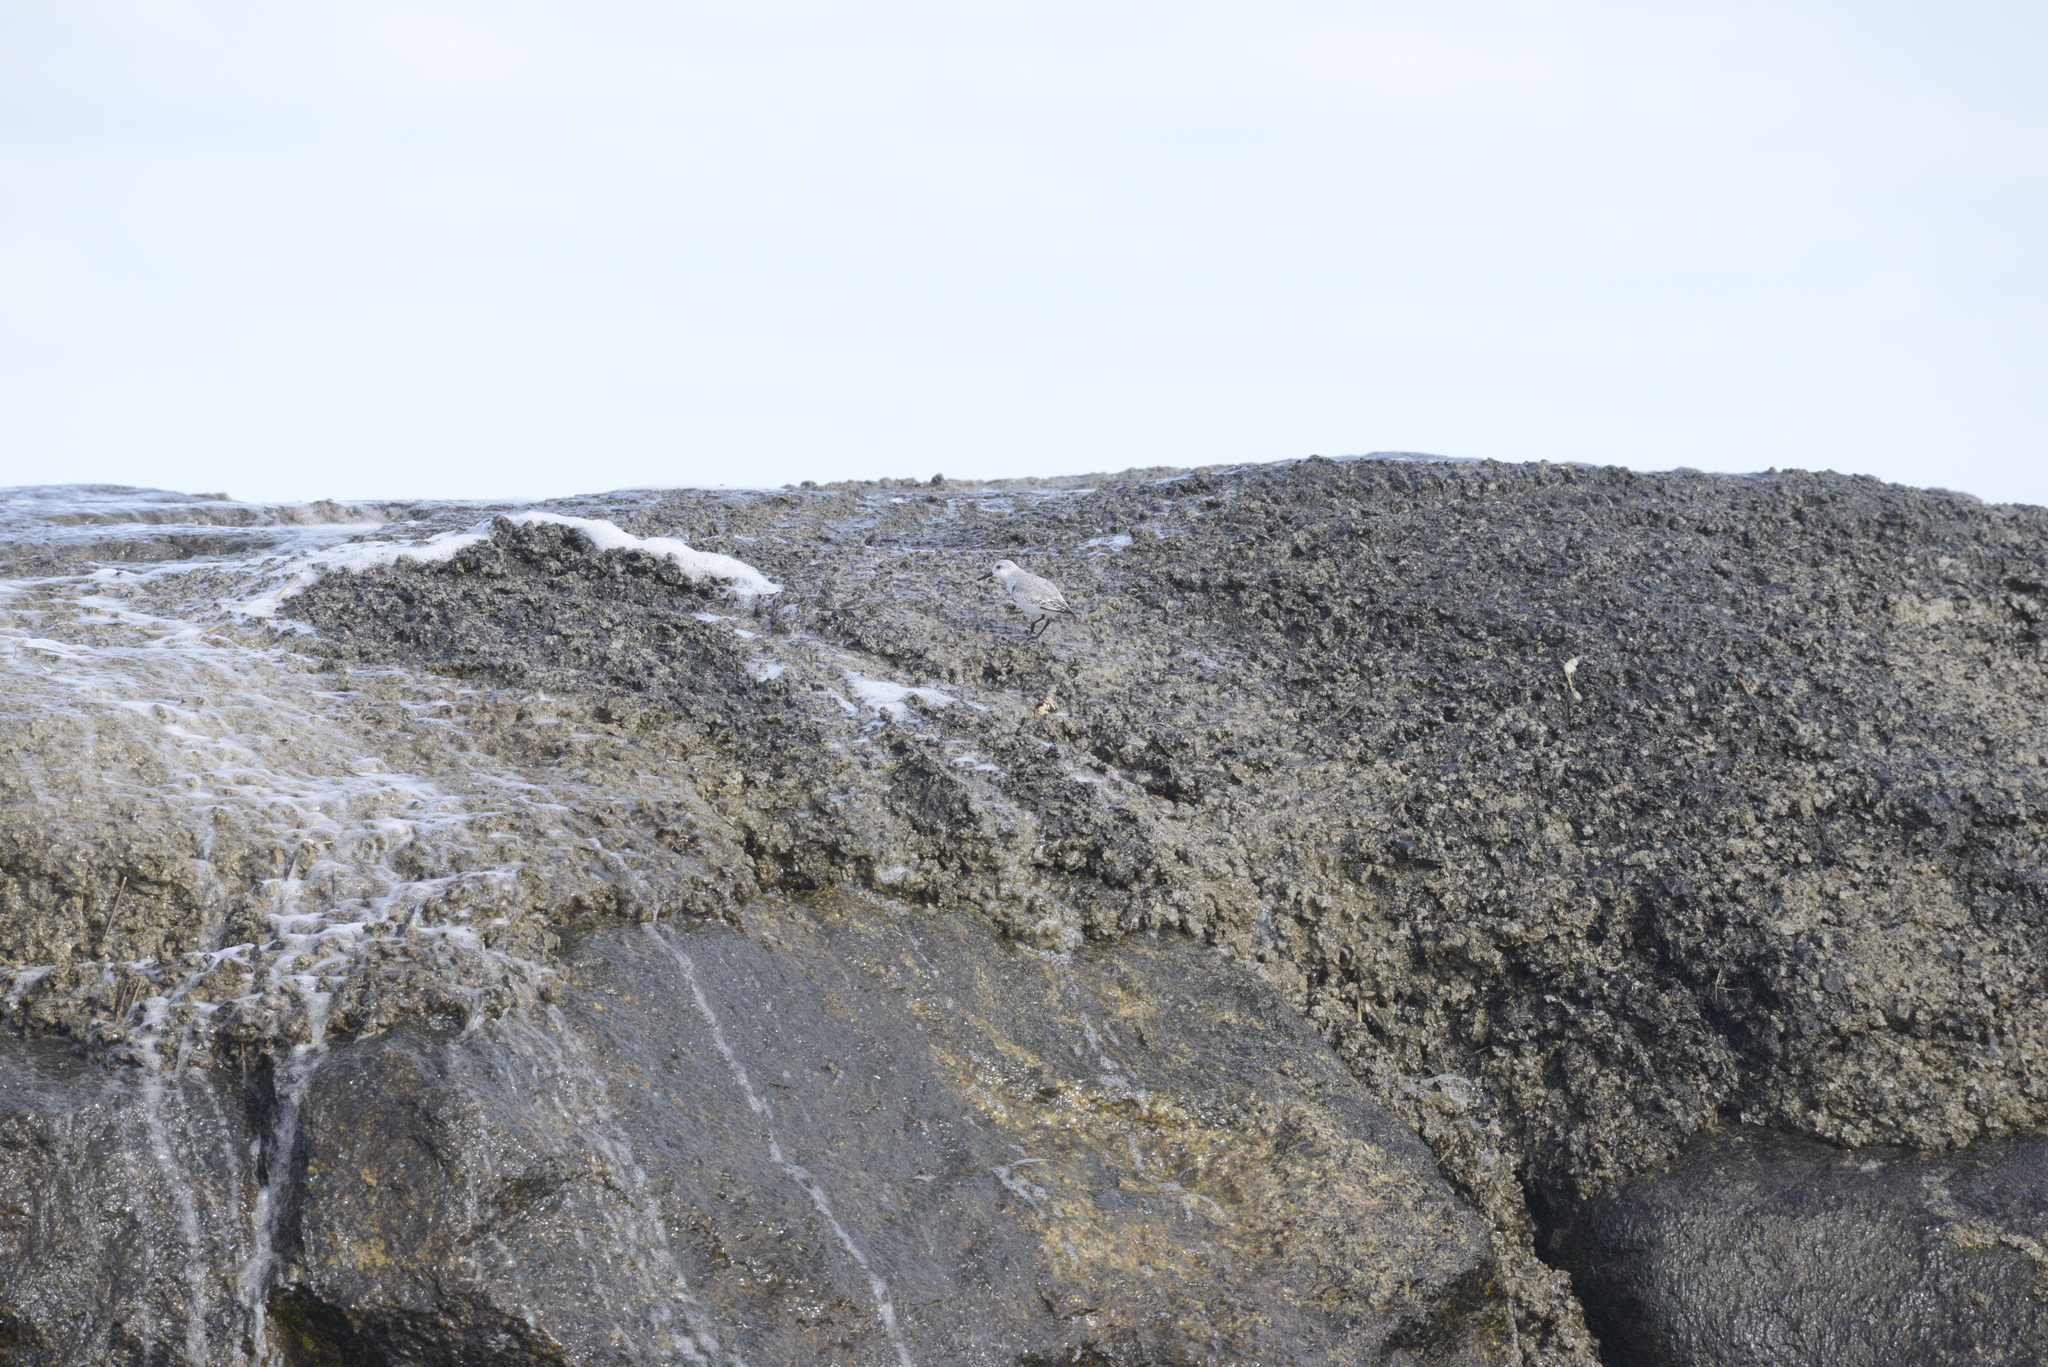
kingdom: Animalia
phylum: Chordata
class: Aves
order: Charadriiformes
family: Scolopacidae
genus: Calidris
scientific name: Calidris alba
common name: Sanderling
